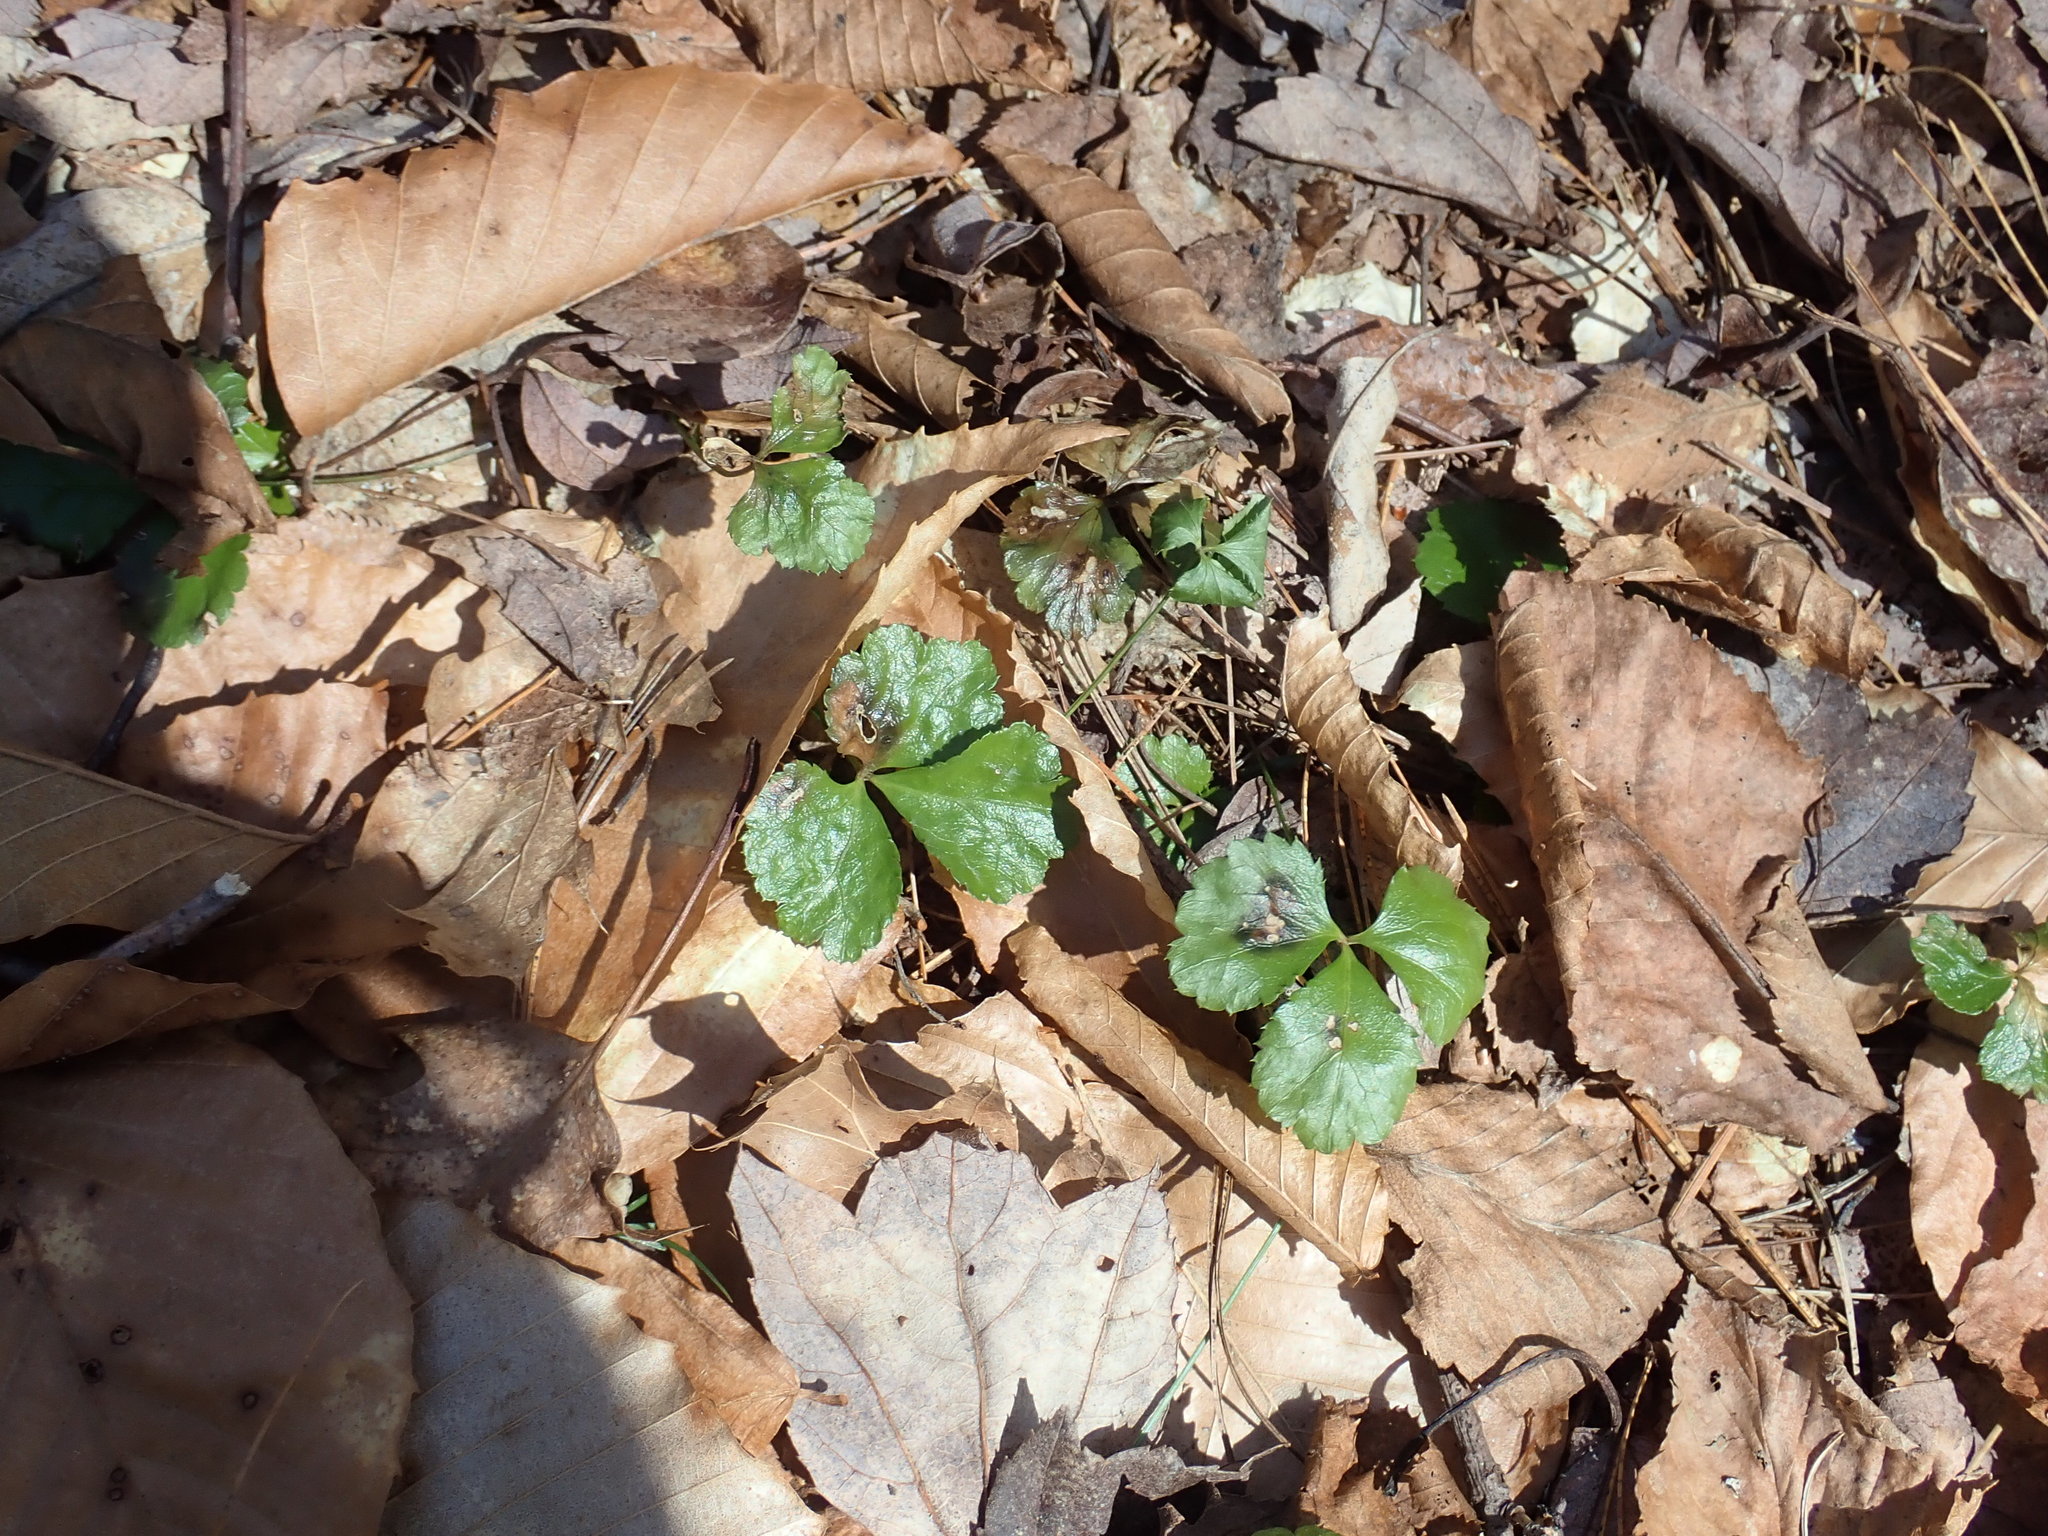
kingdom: Plantae
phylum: Tracheophyta
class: Magnoliopsida
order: Ranunculales
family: Ranunculaceae
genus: Coptis
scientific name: Coptis trifolia
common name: Canker-root
